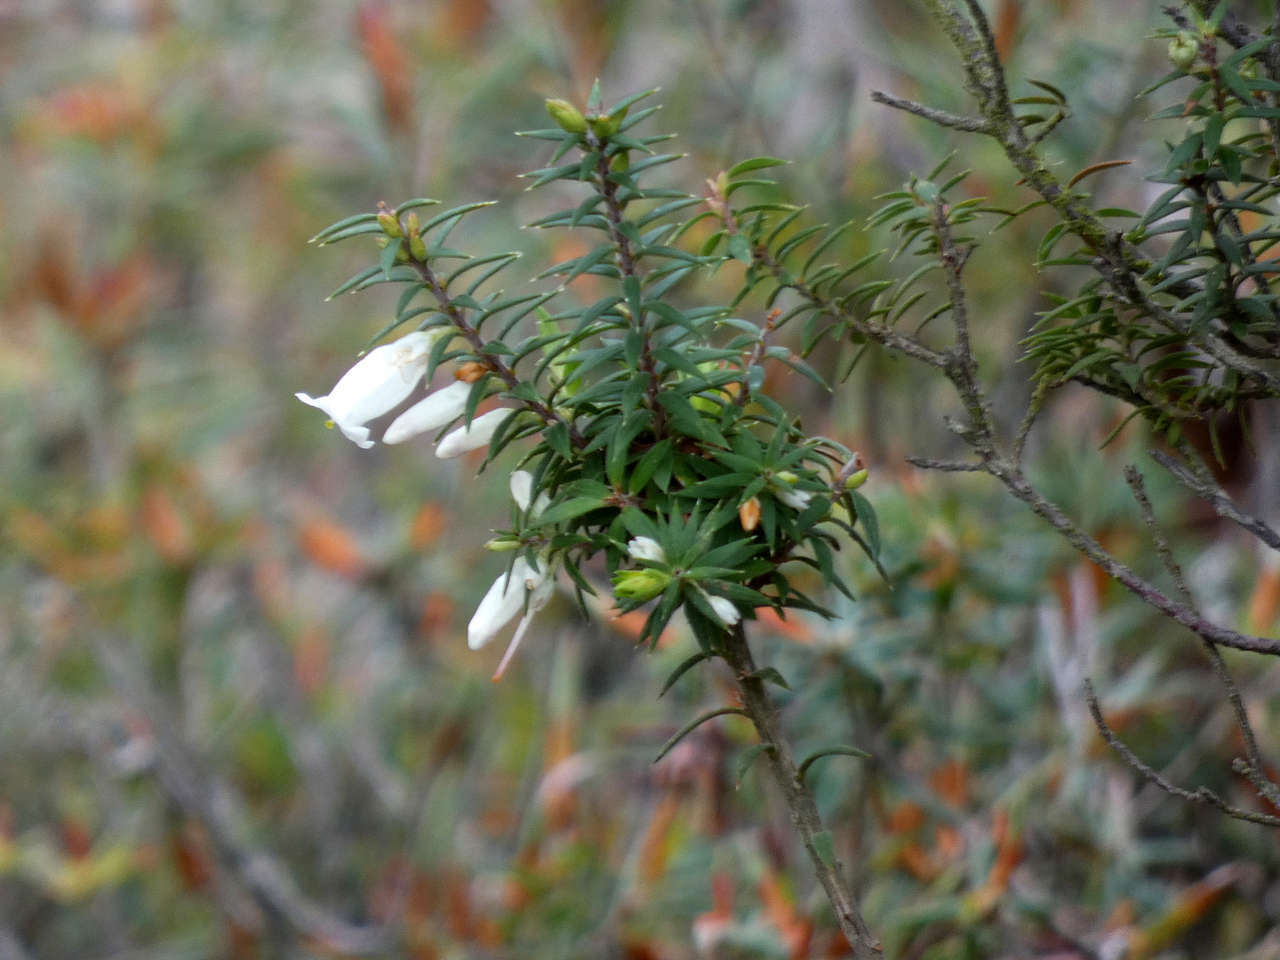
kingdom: Plantae
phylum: Tracheophyta
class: Magnoliopsida
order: Ericales
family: Ericaceae
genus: Epacris
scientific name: Epacris impressa
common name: Common-heath
